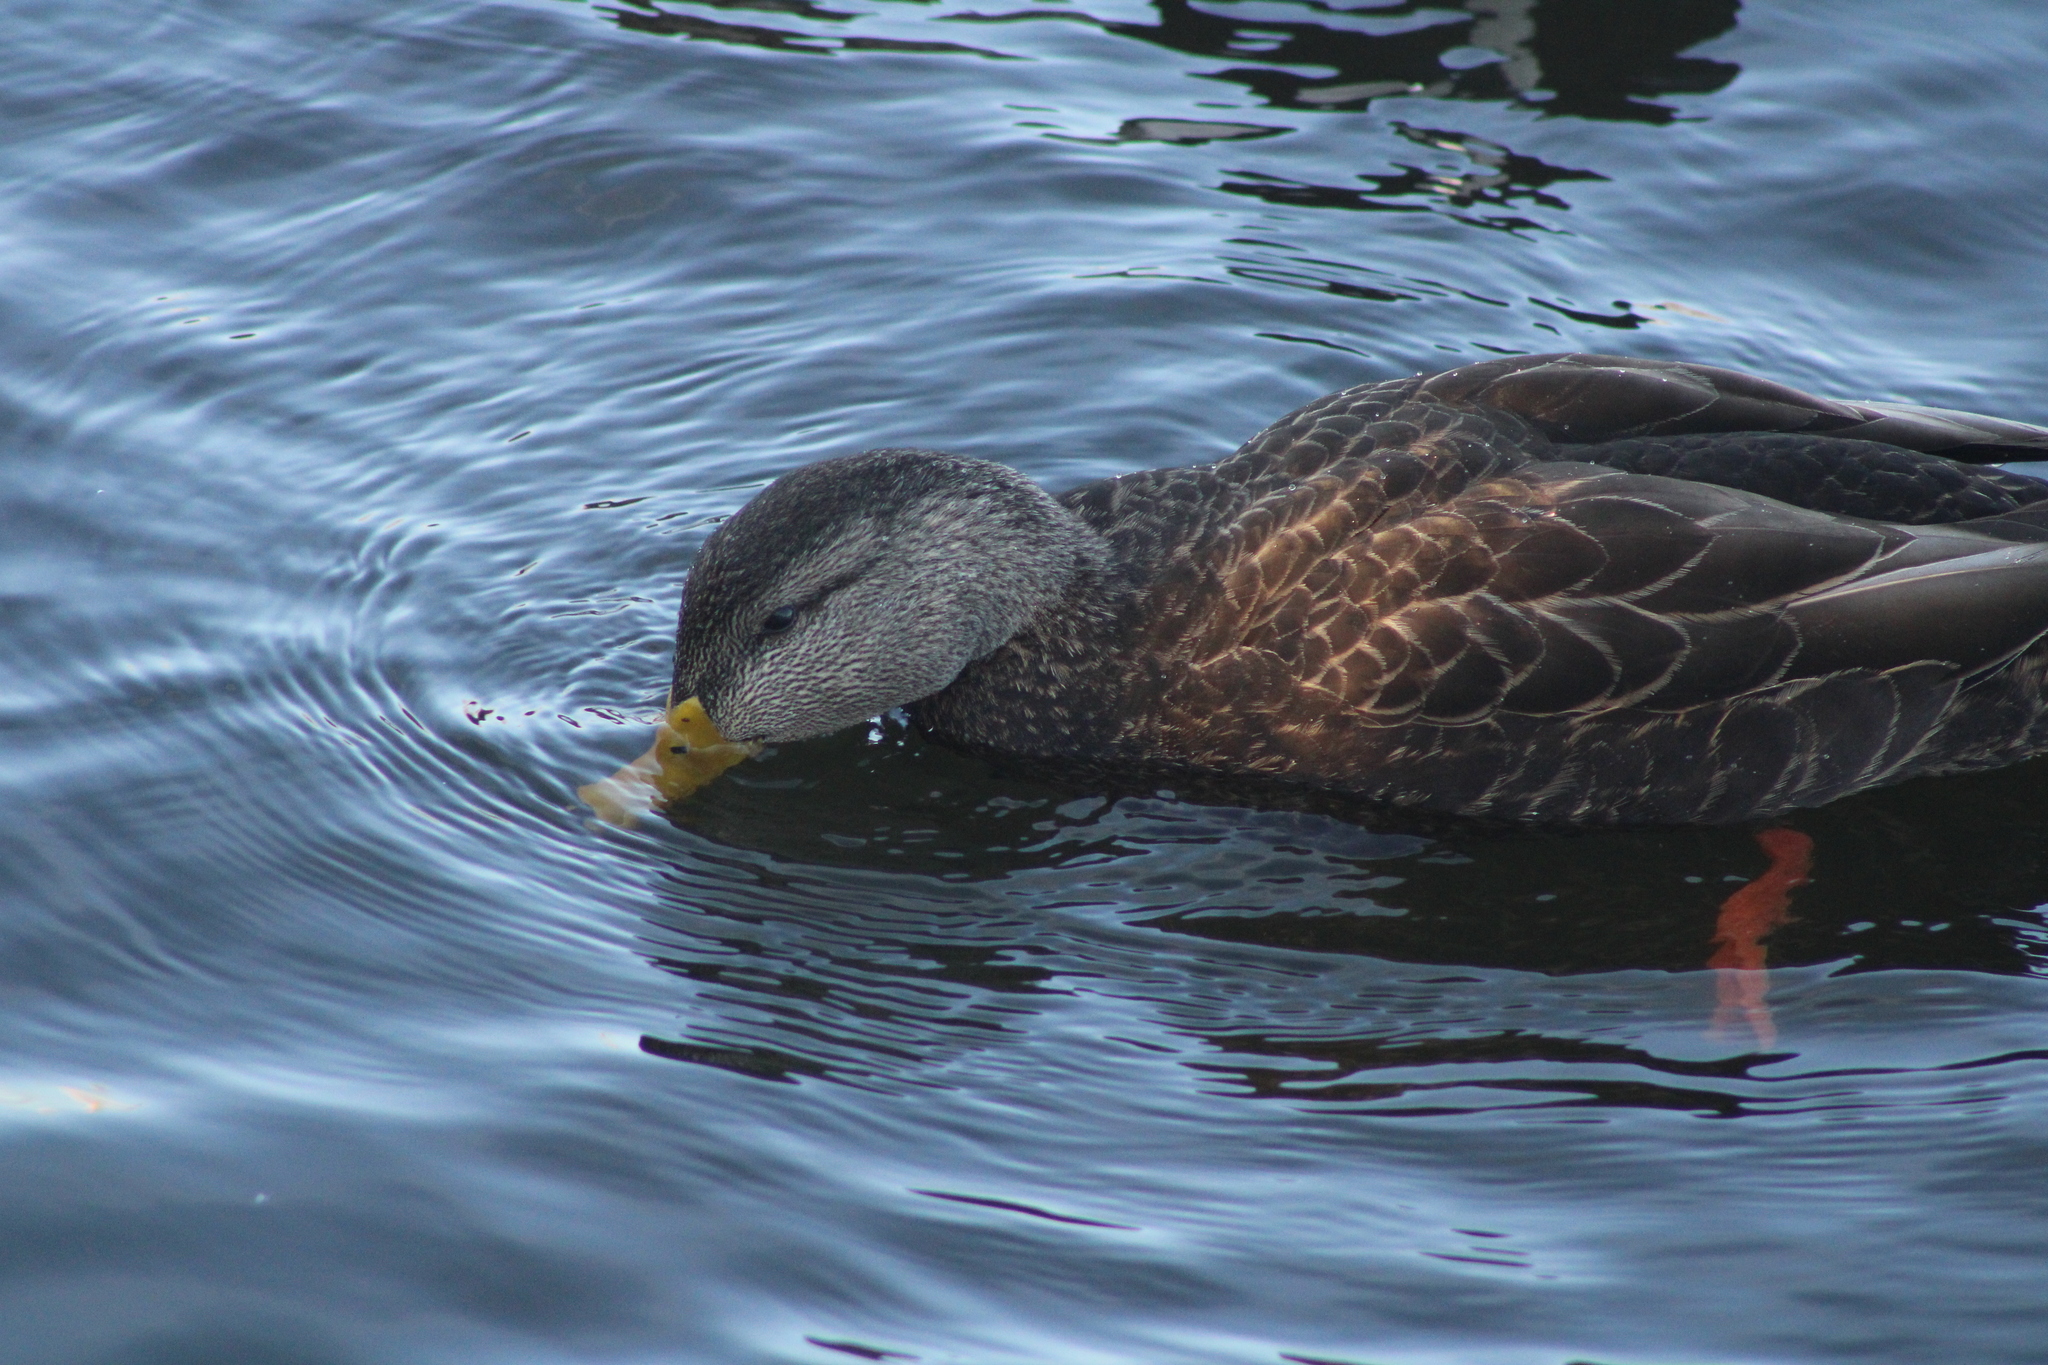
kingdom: Animalia
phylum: Chordata
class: Aves
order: Anseriformes
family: Anatidae
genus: Anas
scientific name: Anas rubripes
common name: American black duck
